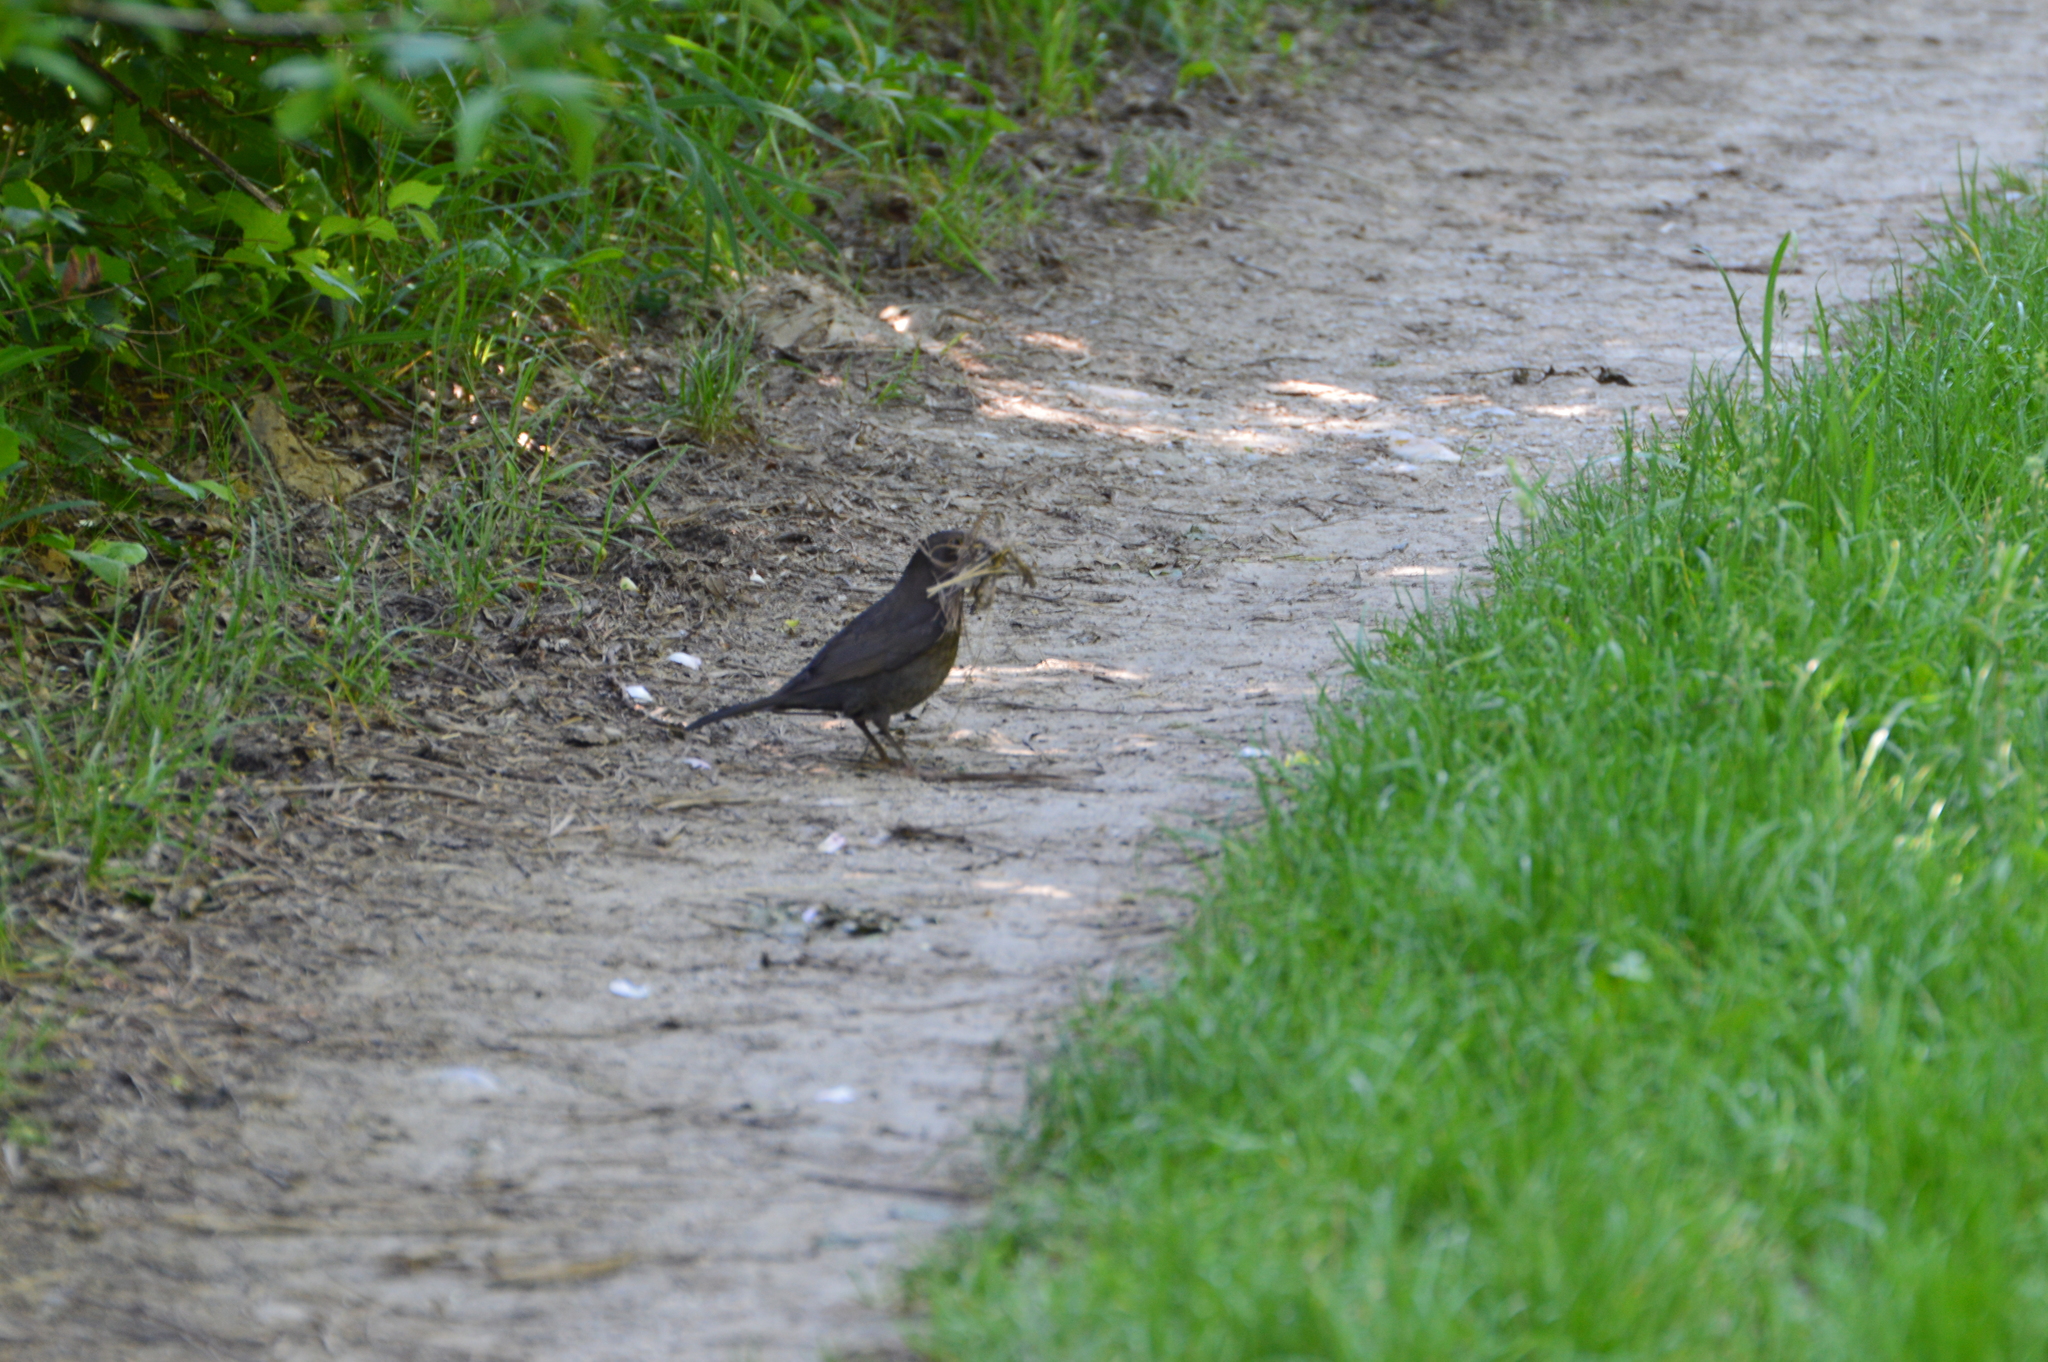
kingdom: Animalia
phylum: Chordata
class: Aves
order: Passeriformes
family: Turdidae
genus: Turdus
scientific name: Turdus merula
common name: Common blackbird
